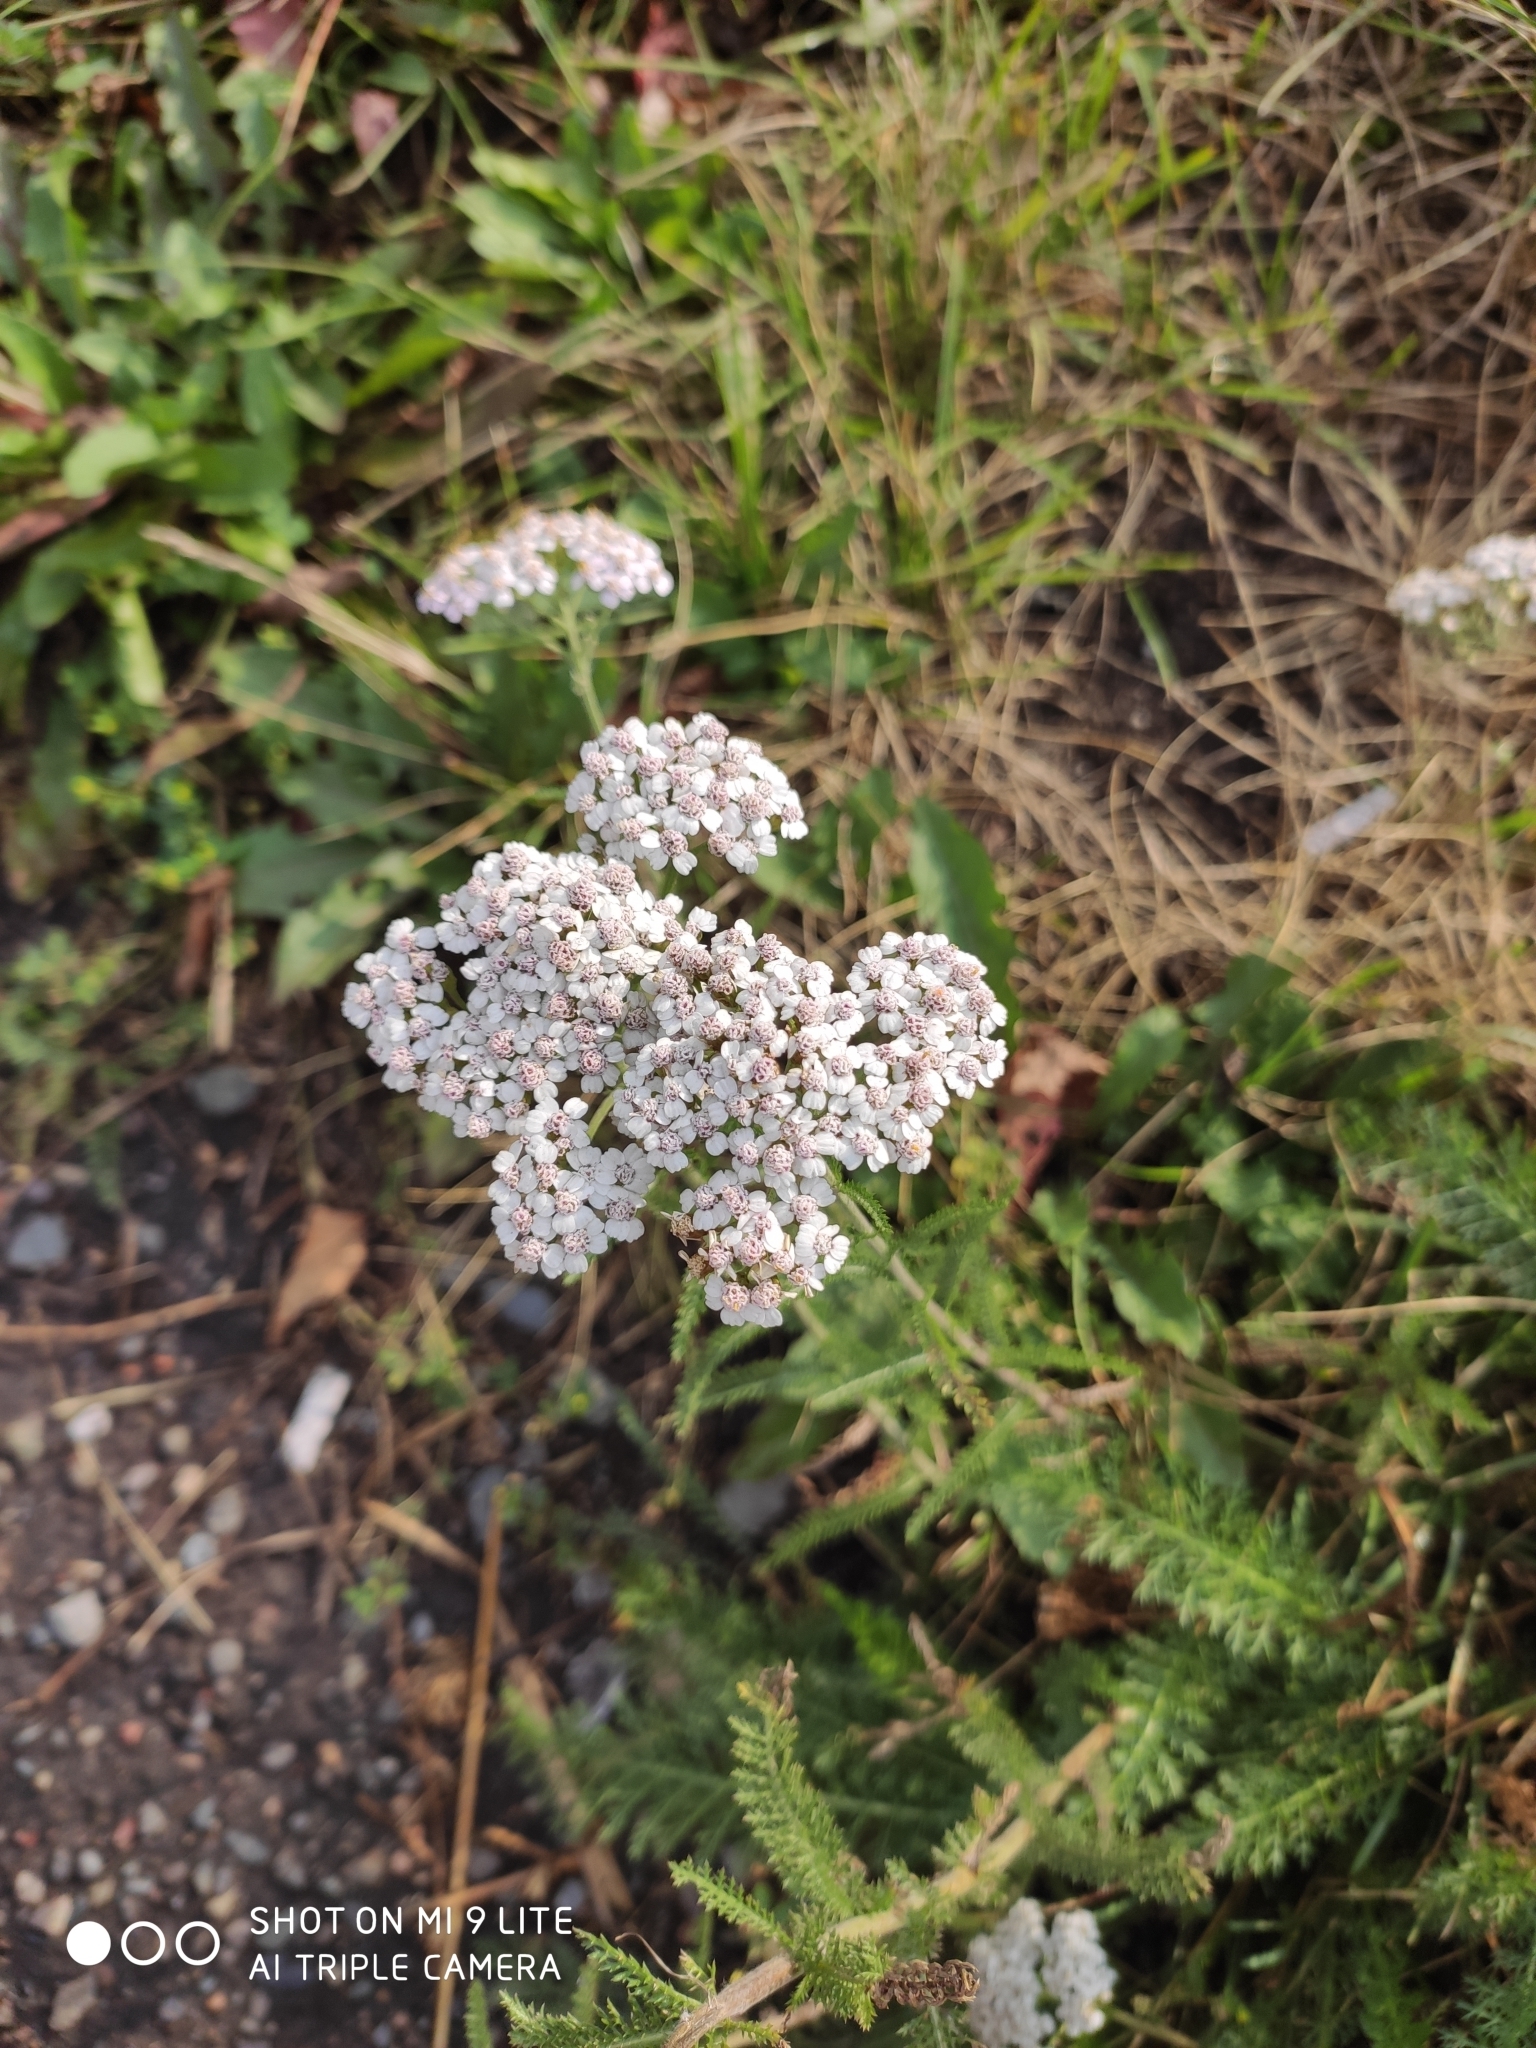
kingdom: Plantae
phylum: Tracheophyta
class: Magnoliopsida
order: Asterales
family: Asteraceae
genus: Achillea
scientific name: Achillea millefolium
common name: Yarrow
